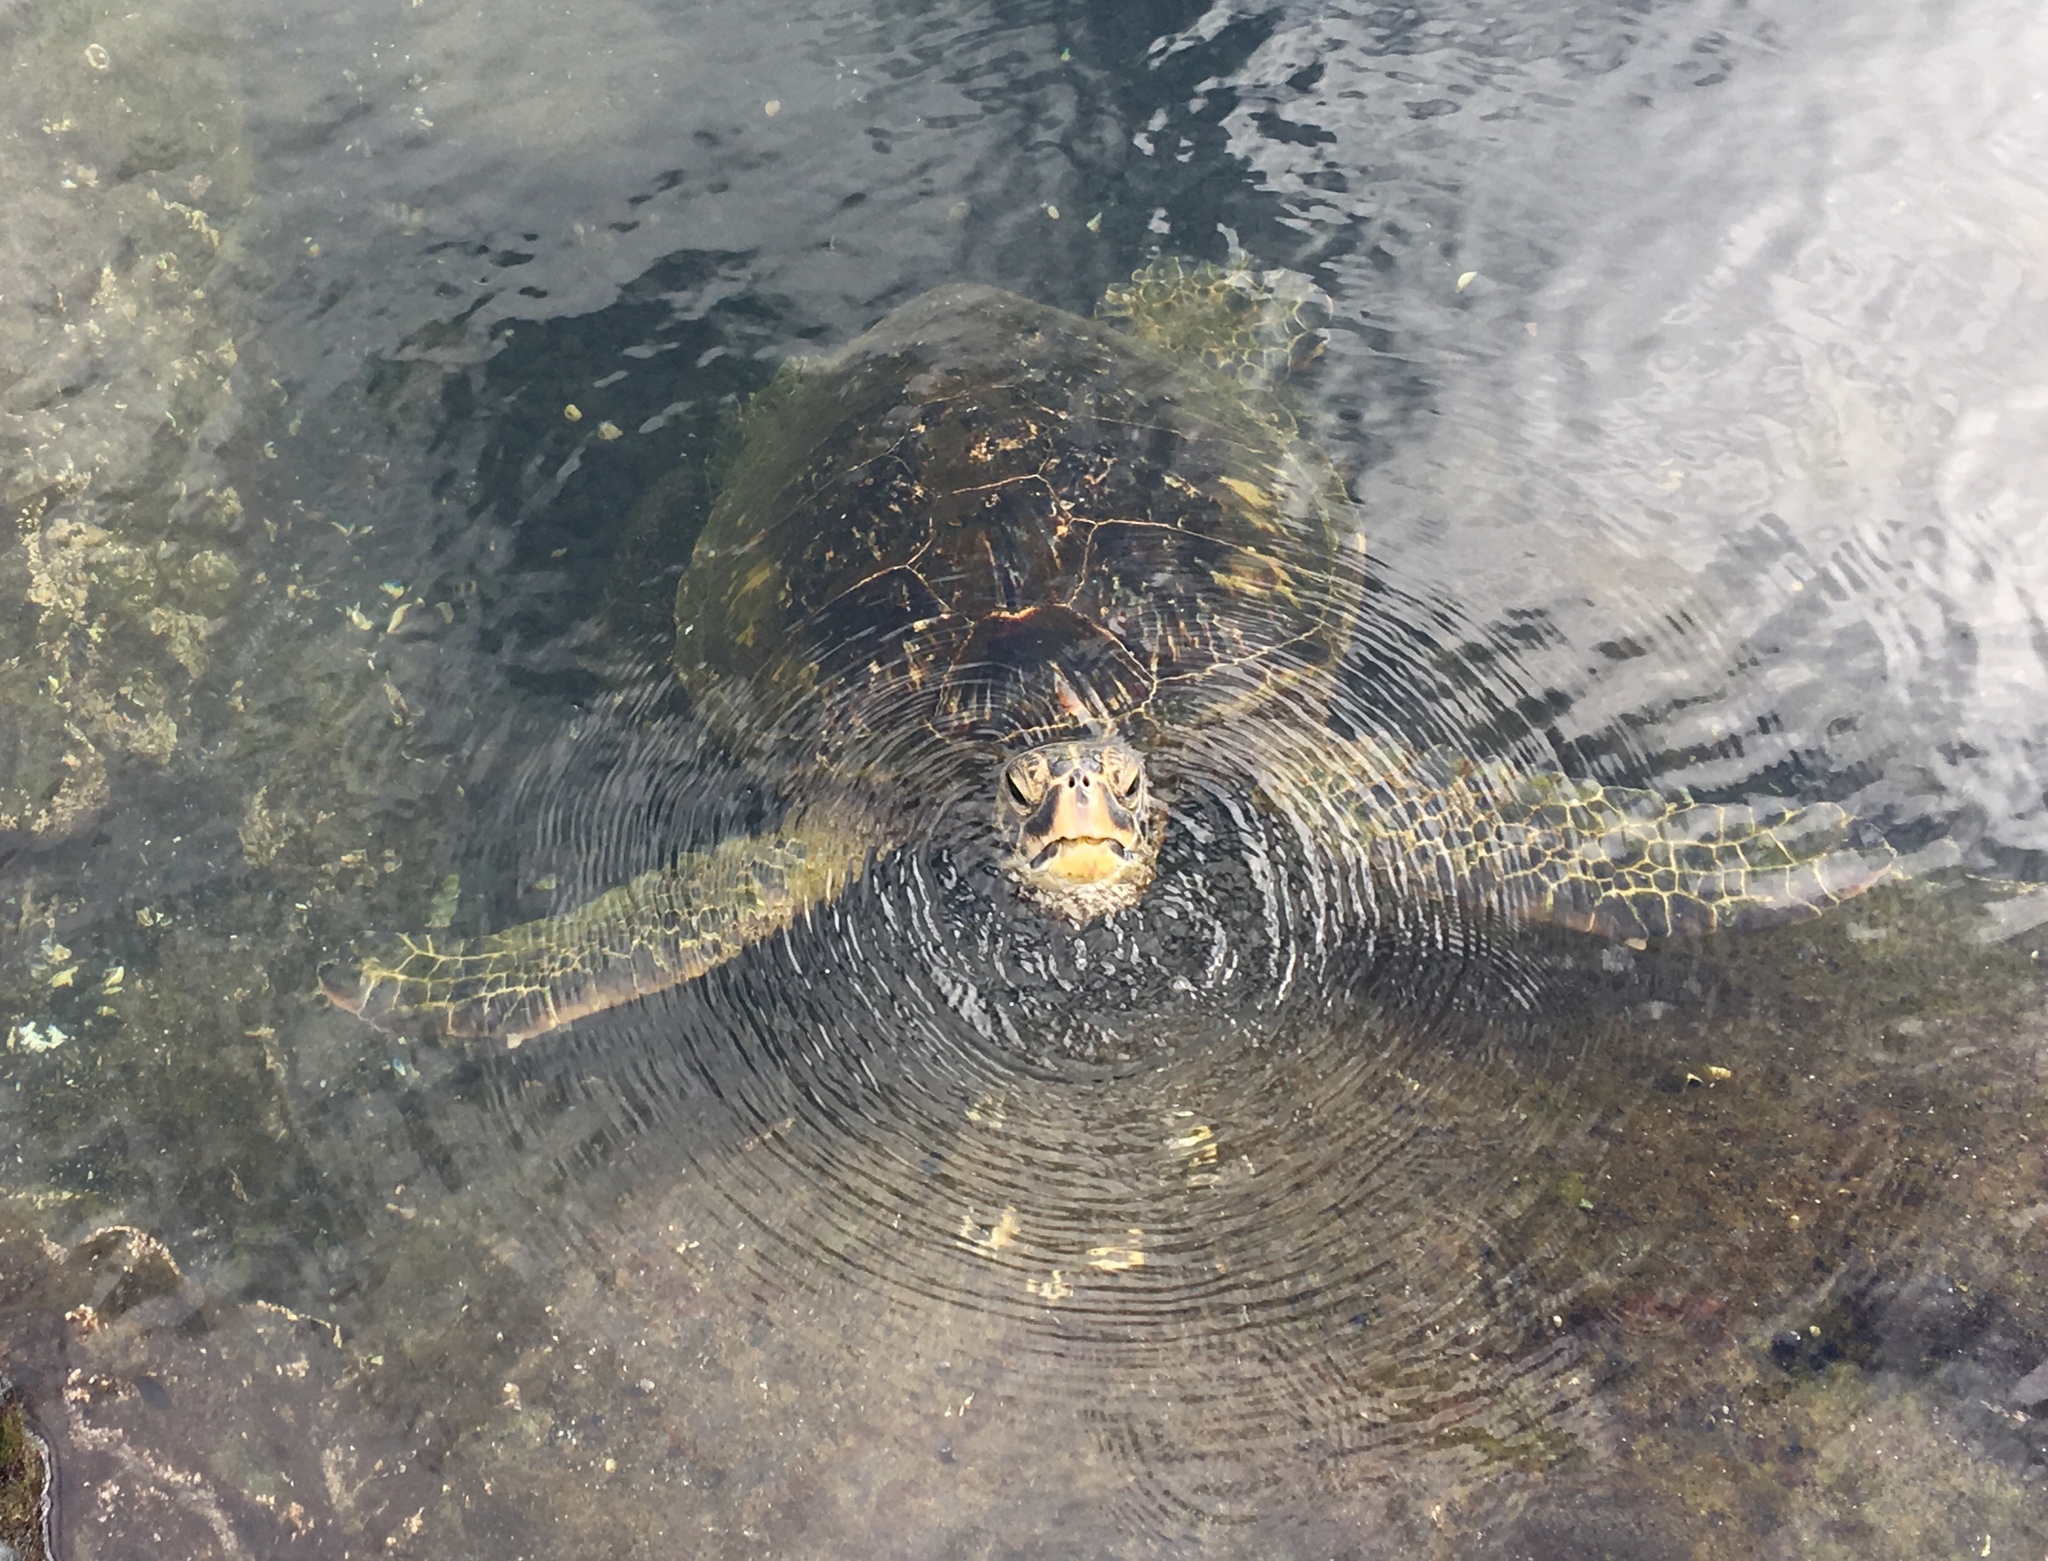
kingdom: Animalia
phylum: Chordata
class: Testudines
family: Cheloniidae
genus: Chelonia
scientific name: Chelonia mydas
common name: Green turtle
